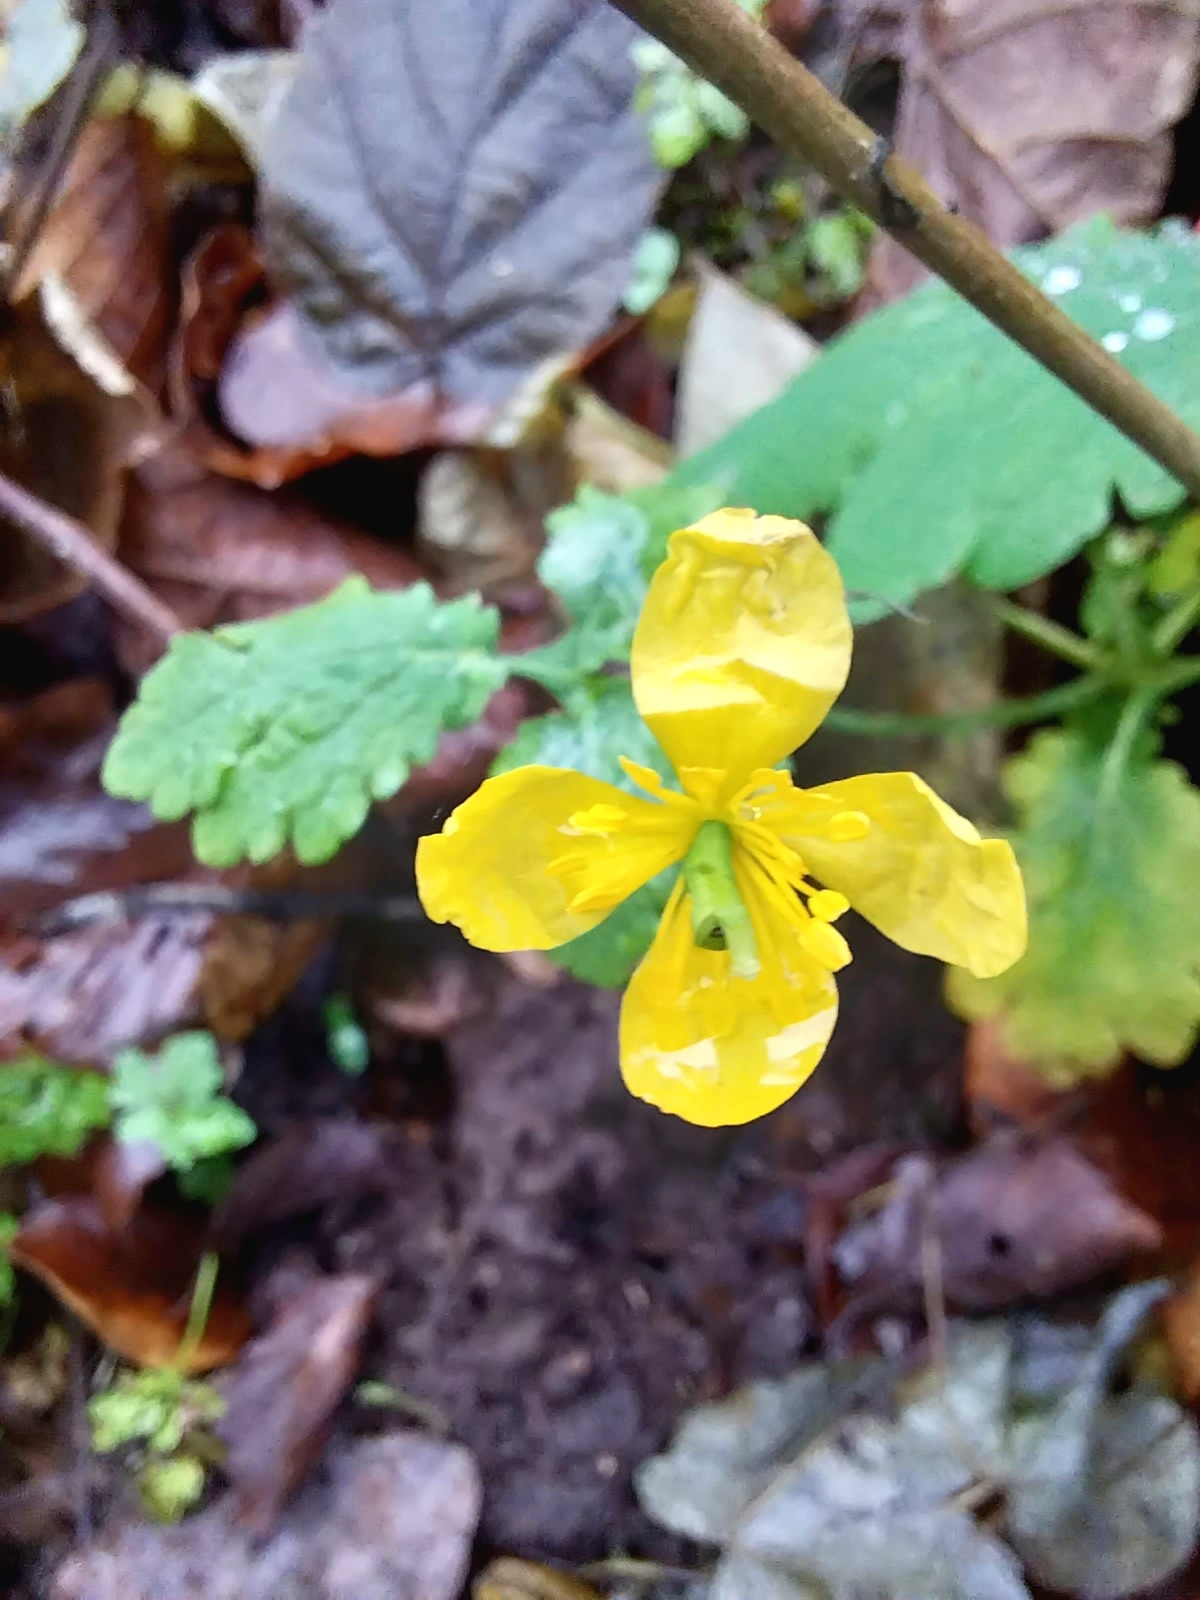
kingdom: Plantae
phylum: Tracheophyta
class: Magnoliopsida
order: Ranunculales
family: Papaveraceae
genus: Chelidonium
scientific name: Chelidonium majus
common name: Greater celandine
